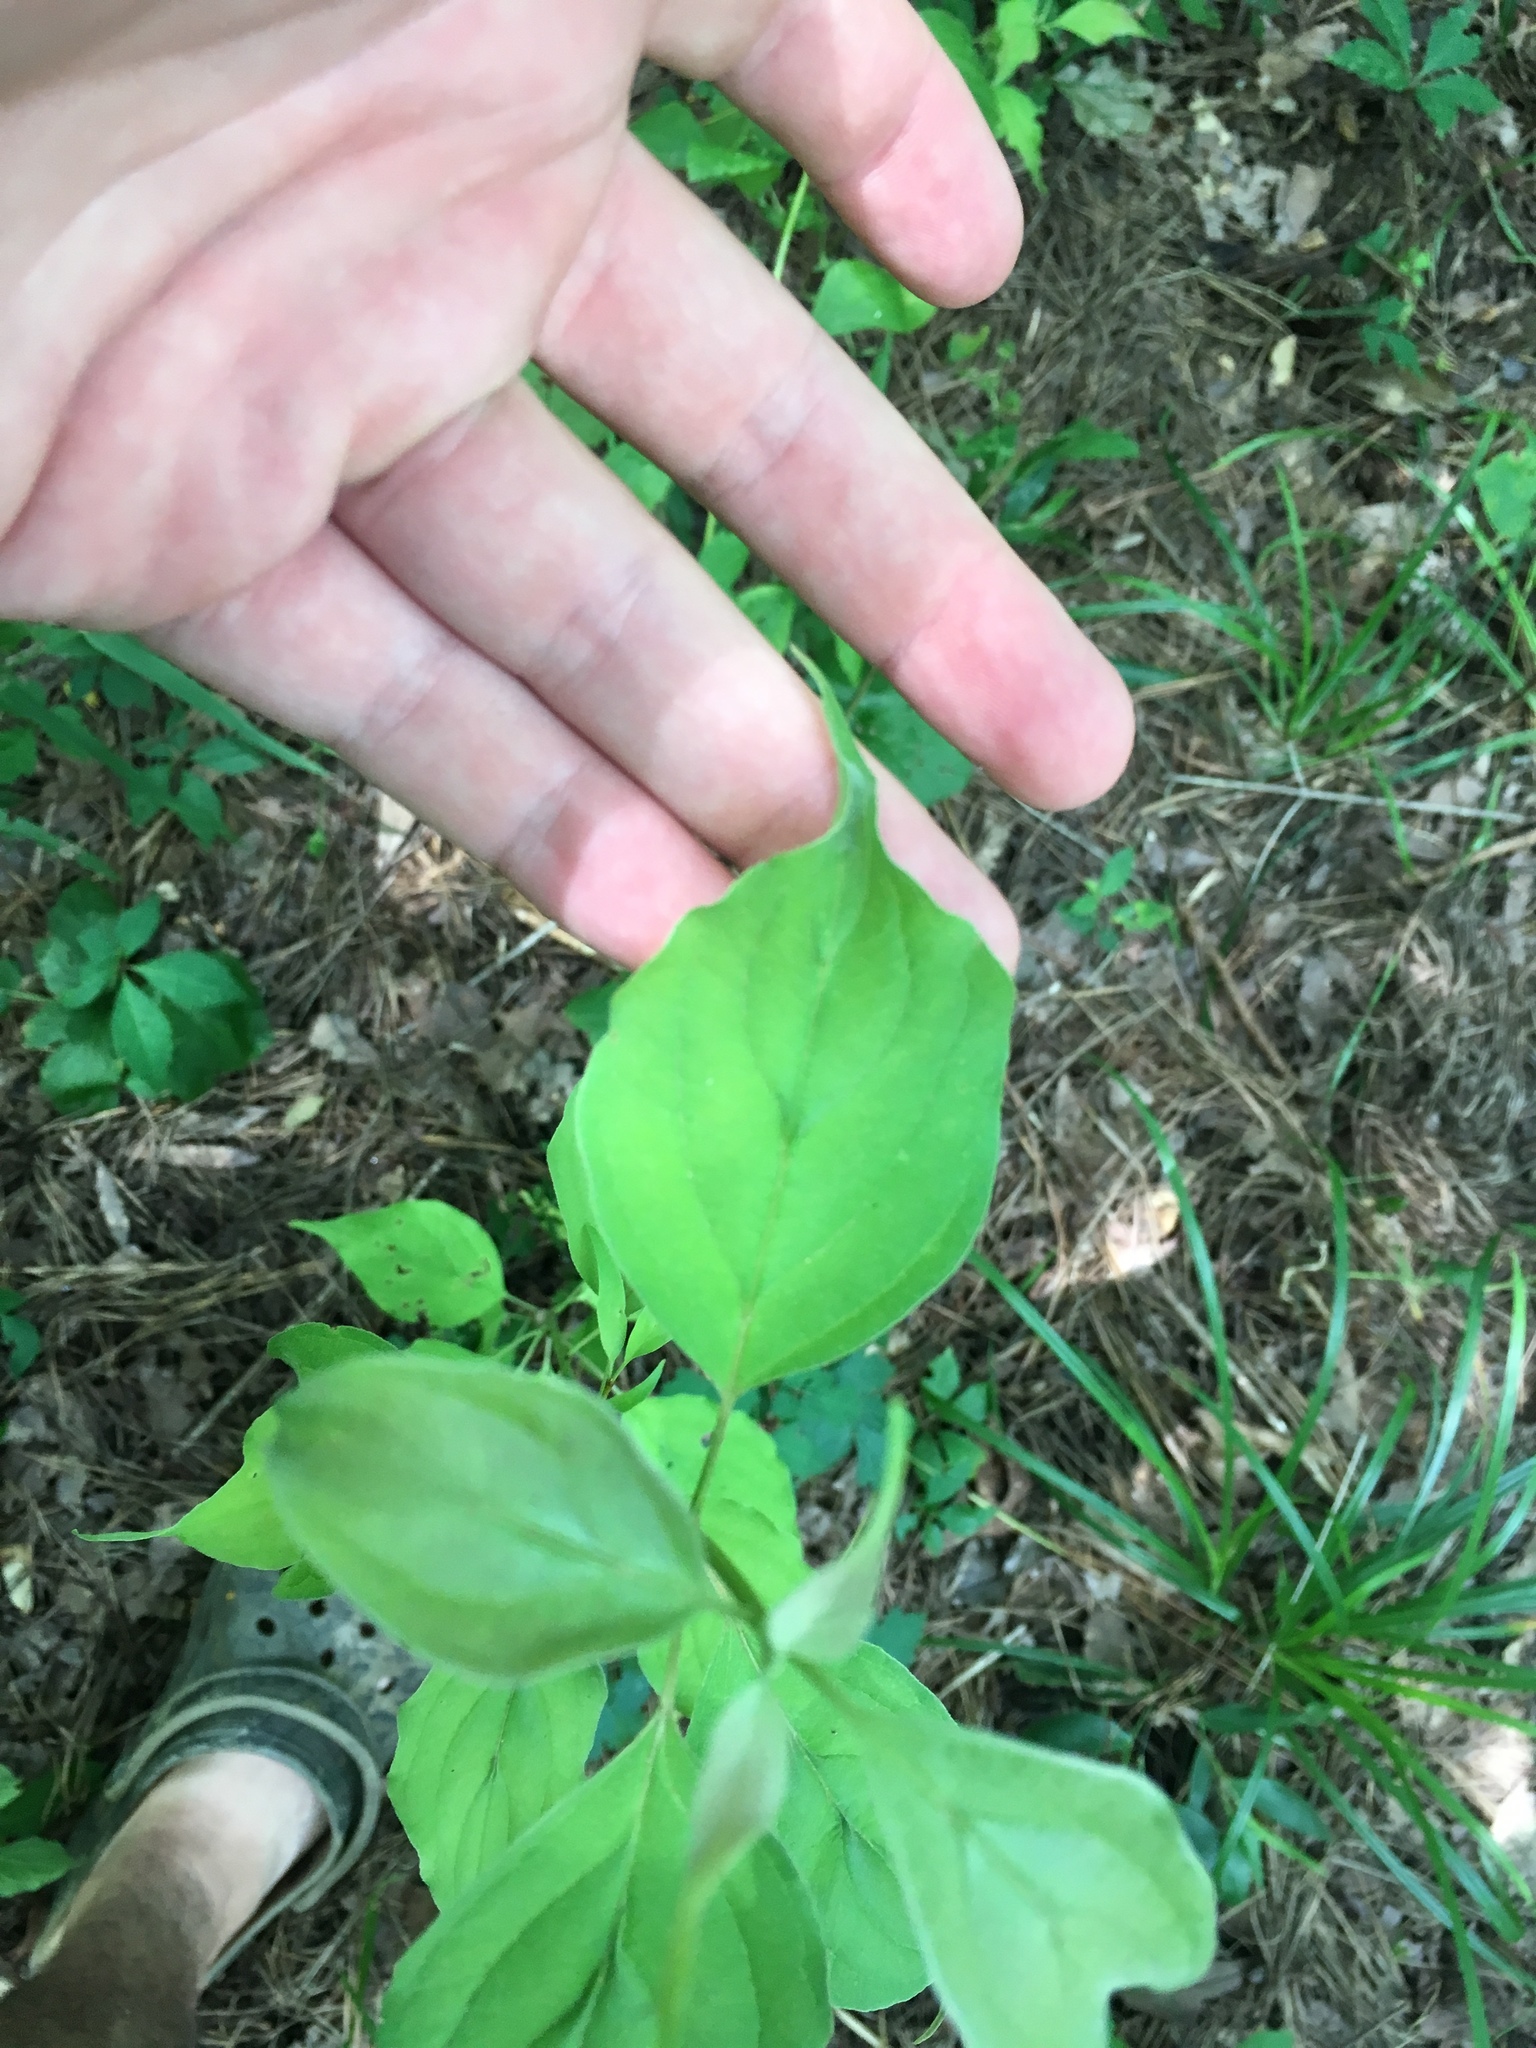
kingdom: Plantae
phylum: Tracheophyta
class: Magnoliopsida
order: Cornales
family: Cornaceae
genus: Cornus
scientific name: Cornus drummondii
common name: Rough-leaf dogwood
